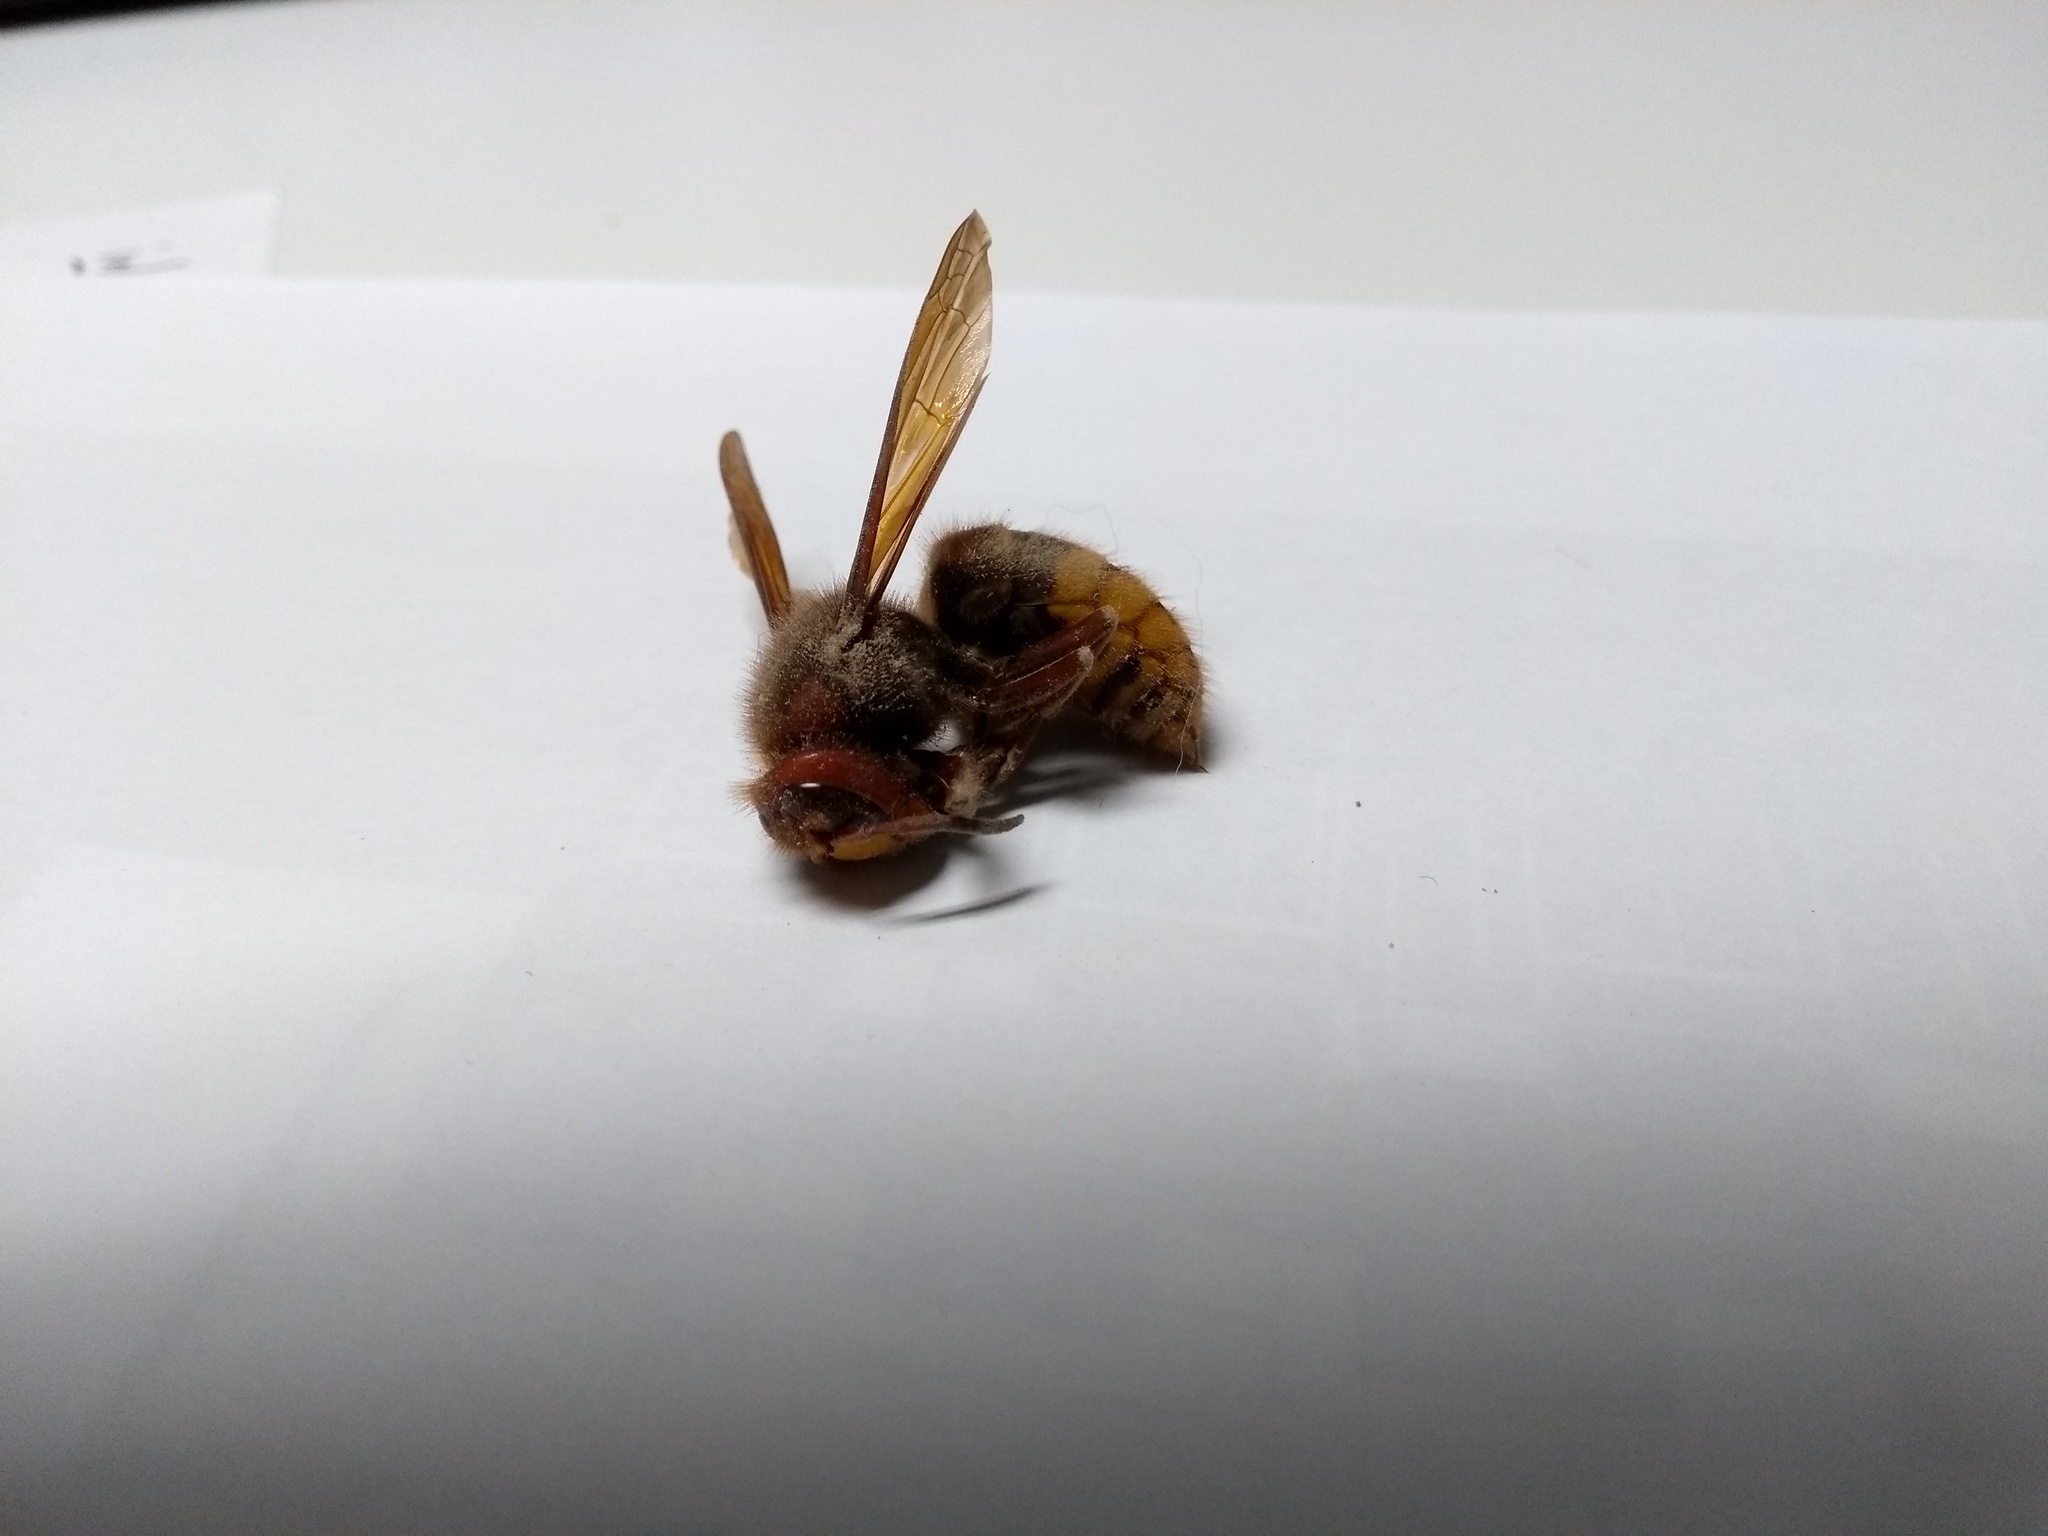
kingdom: Animalia
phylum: Arthropoda
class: Insecta
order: Hymenoptera
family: Vespidae
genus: Vespa
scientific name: Vespa crabro
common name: Hornet
